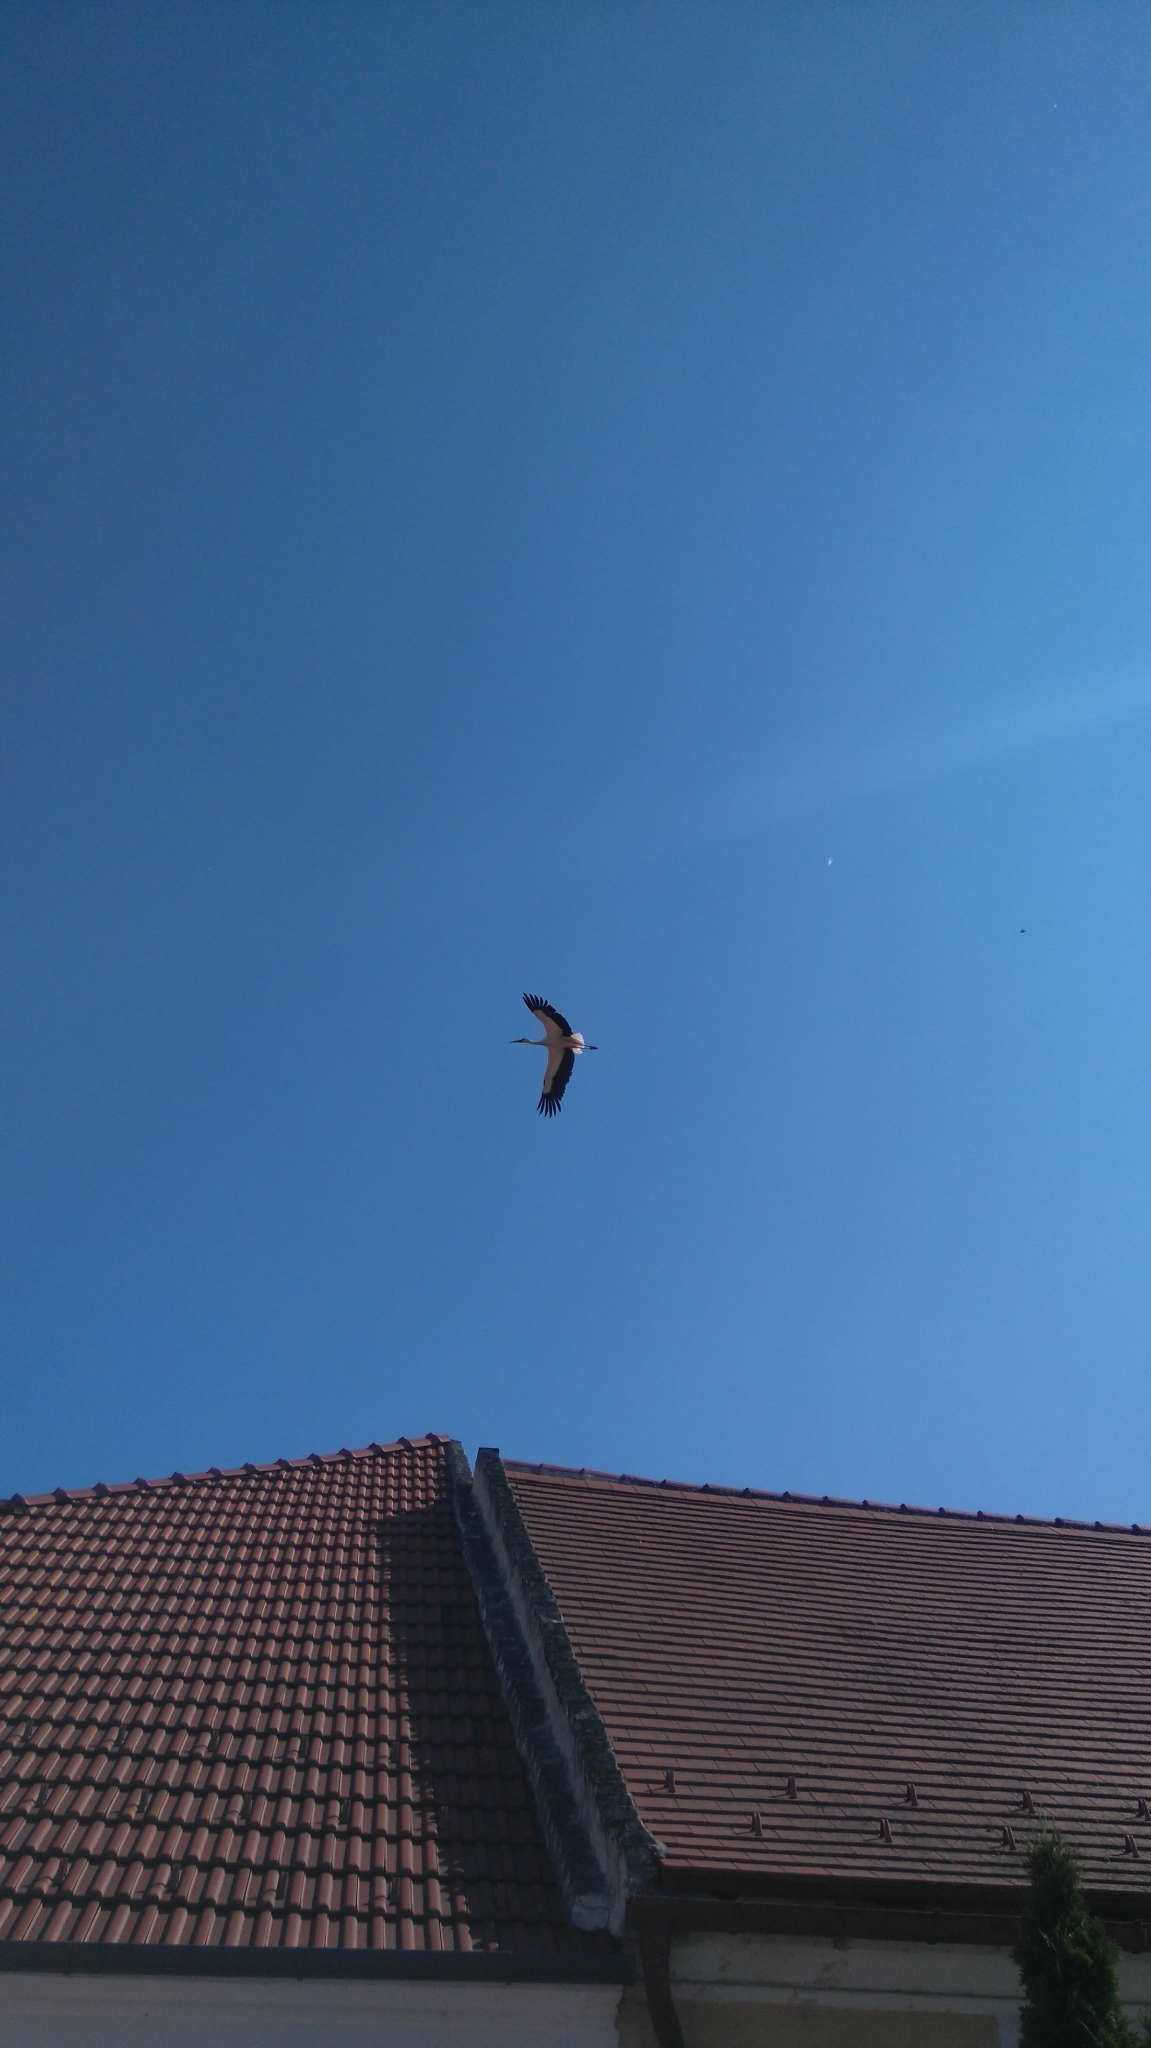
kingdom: Animalia
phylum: Chordata
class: Aves
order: Ciconiiformes
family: Ciconiidae
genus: Ciconia
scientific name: Ciconia ciconia
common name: White stork
